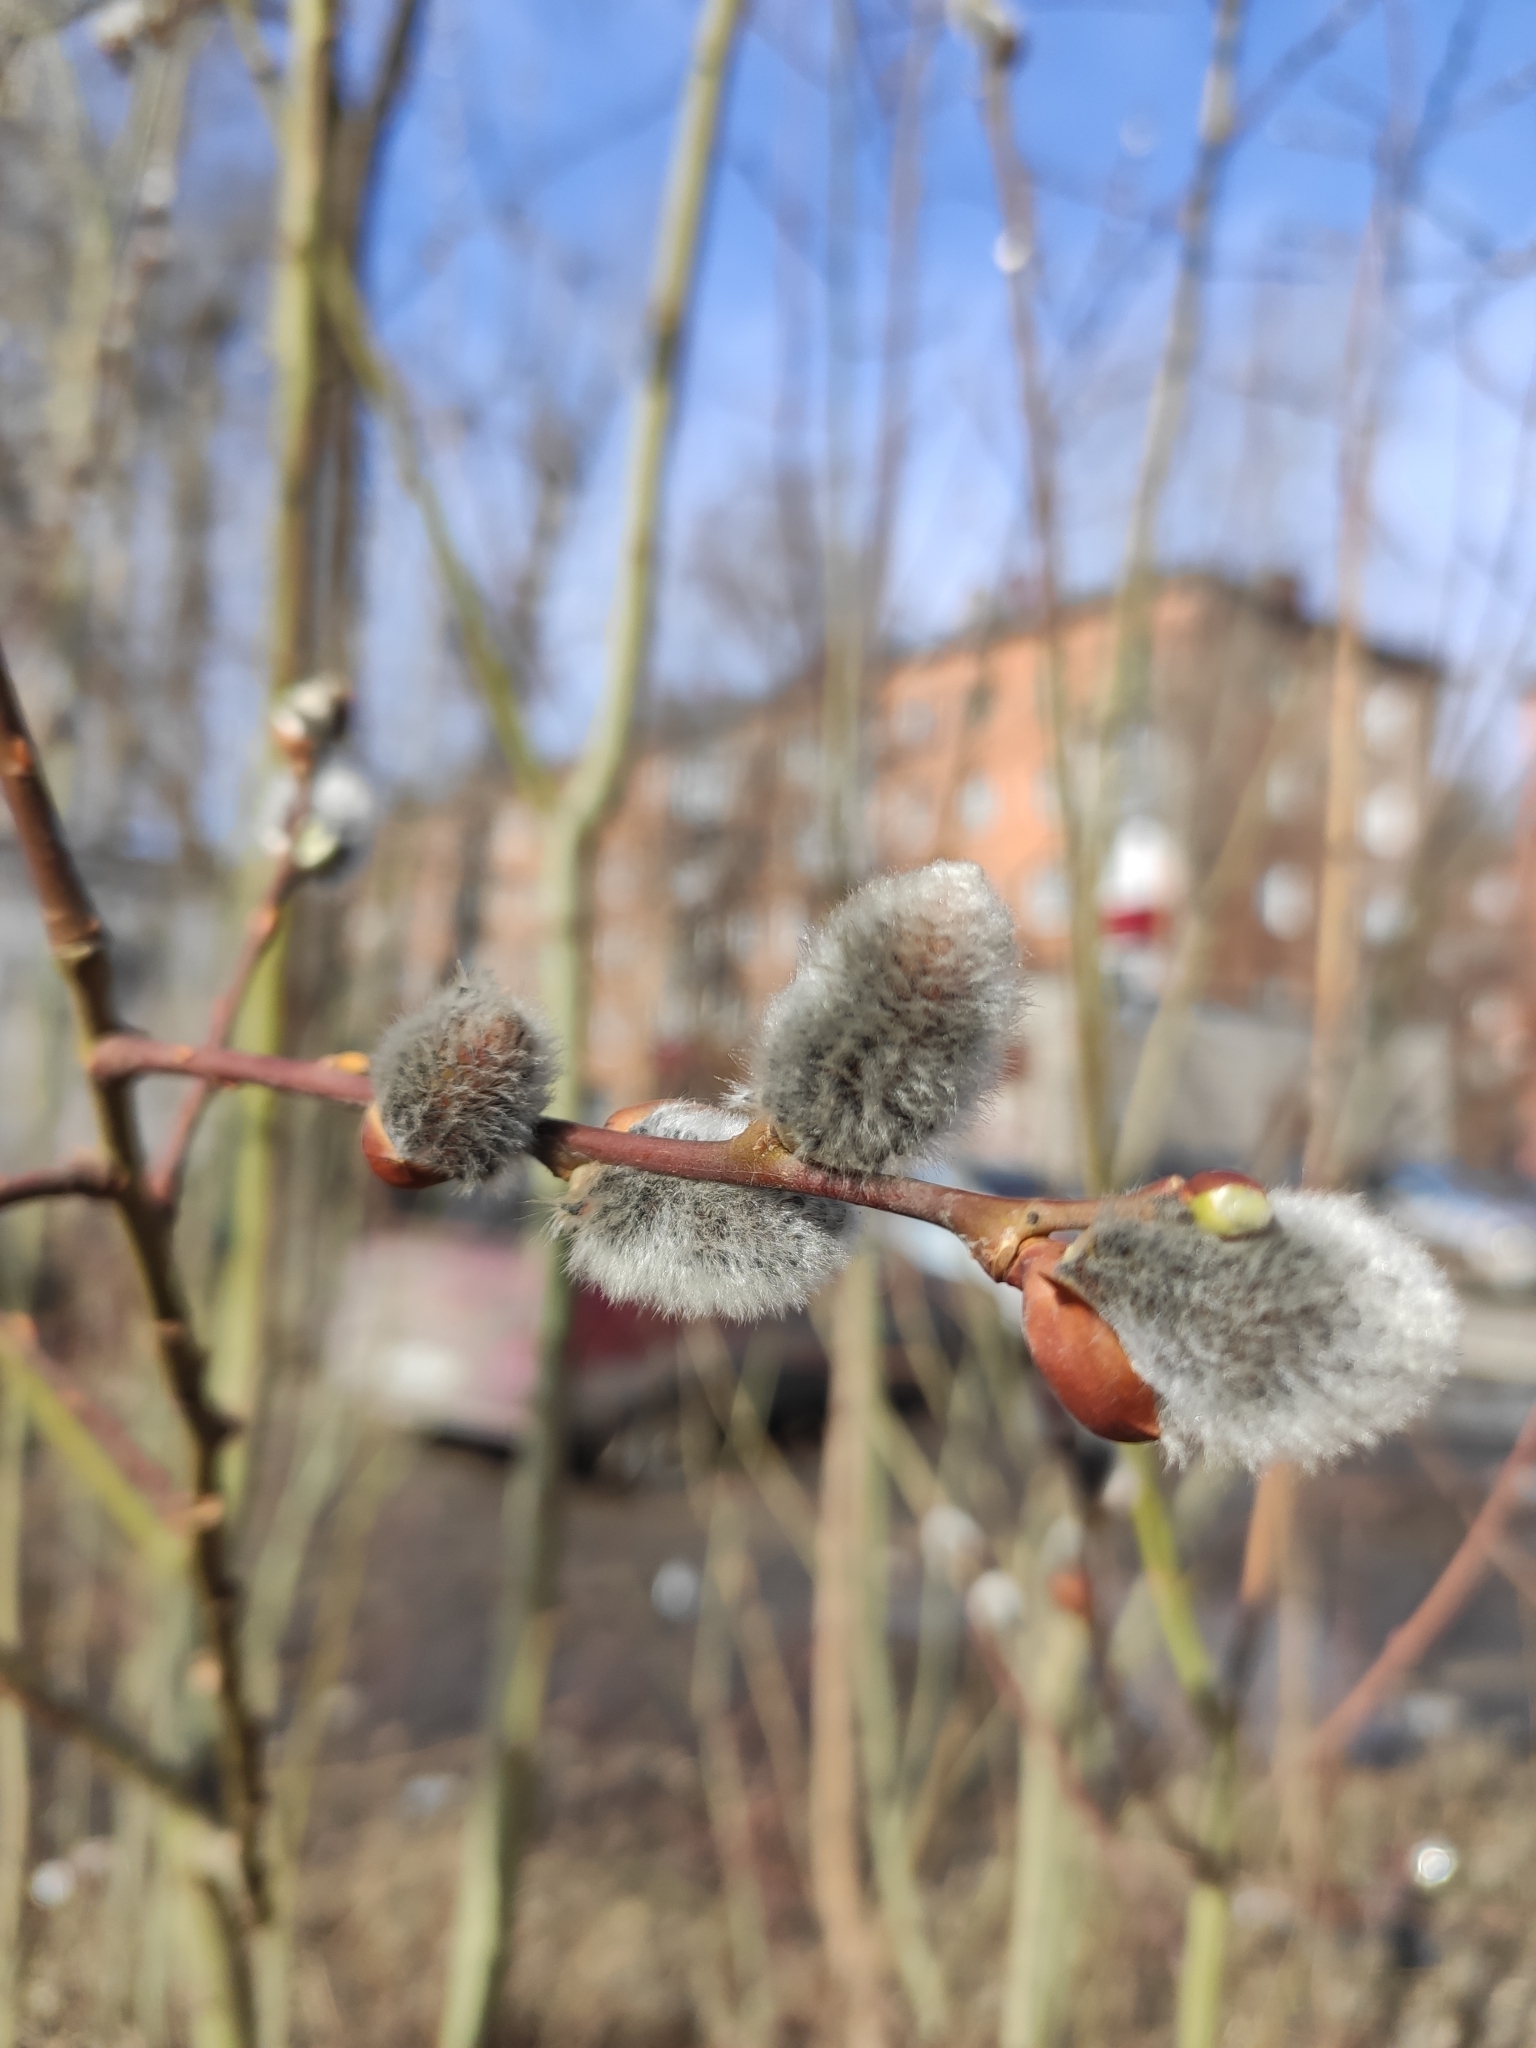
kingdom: Plantae
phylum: Tracheophyta
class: Magnoliopsida
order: Malpighiales
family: Salicaceae
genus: Salix
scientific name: Salix caprea
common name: Goat willow
